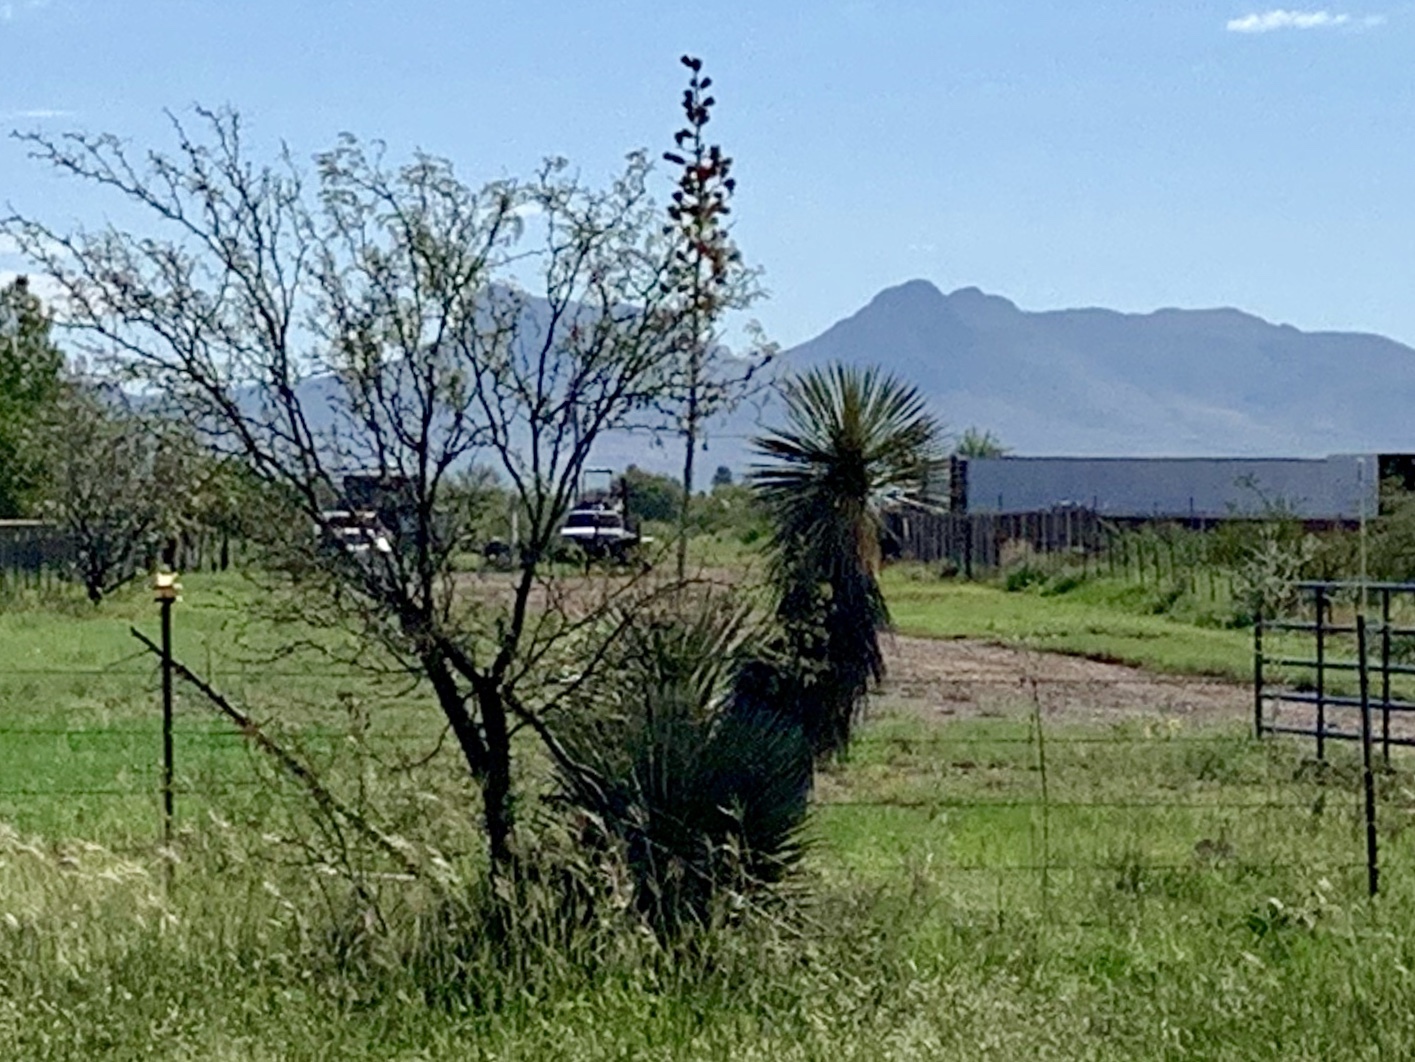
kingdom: Plantae
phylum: Tracheophyta
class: Liliopsida
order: Asparagales
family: Asparagaceae
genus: Yucca
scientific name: Yucca elata
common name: Palmella
